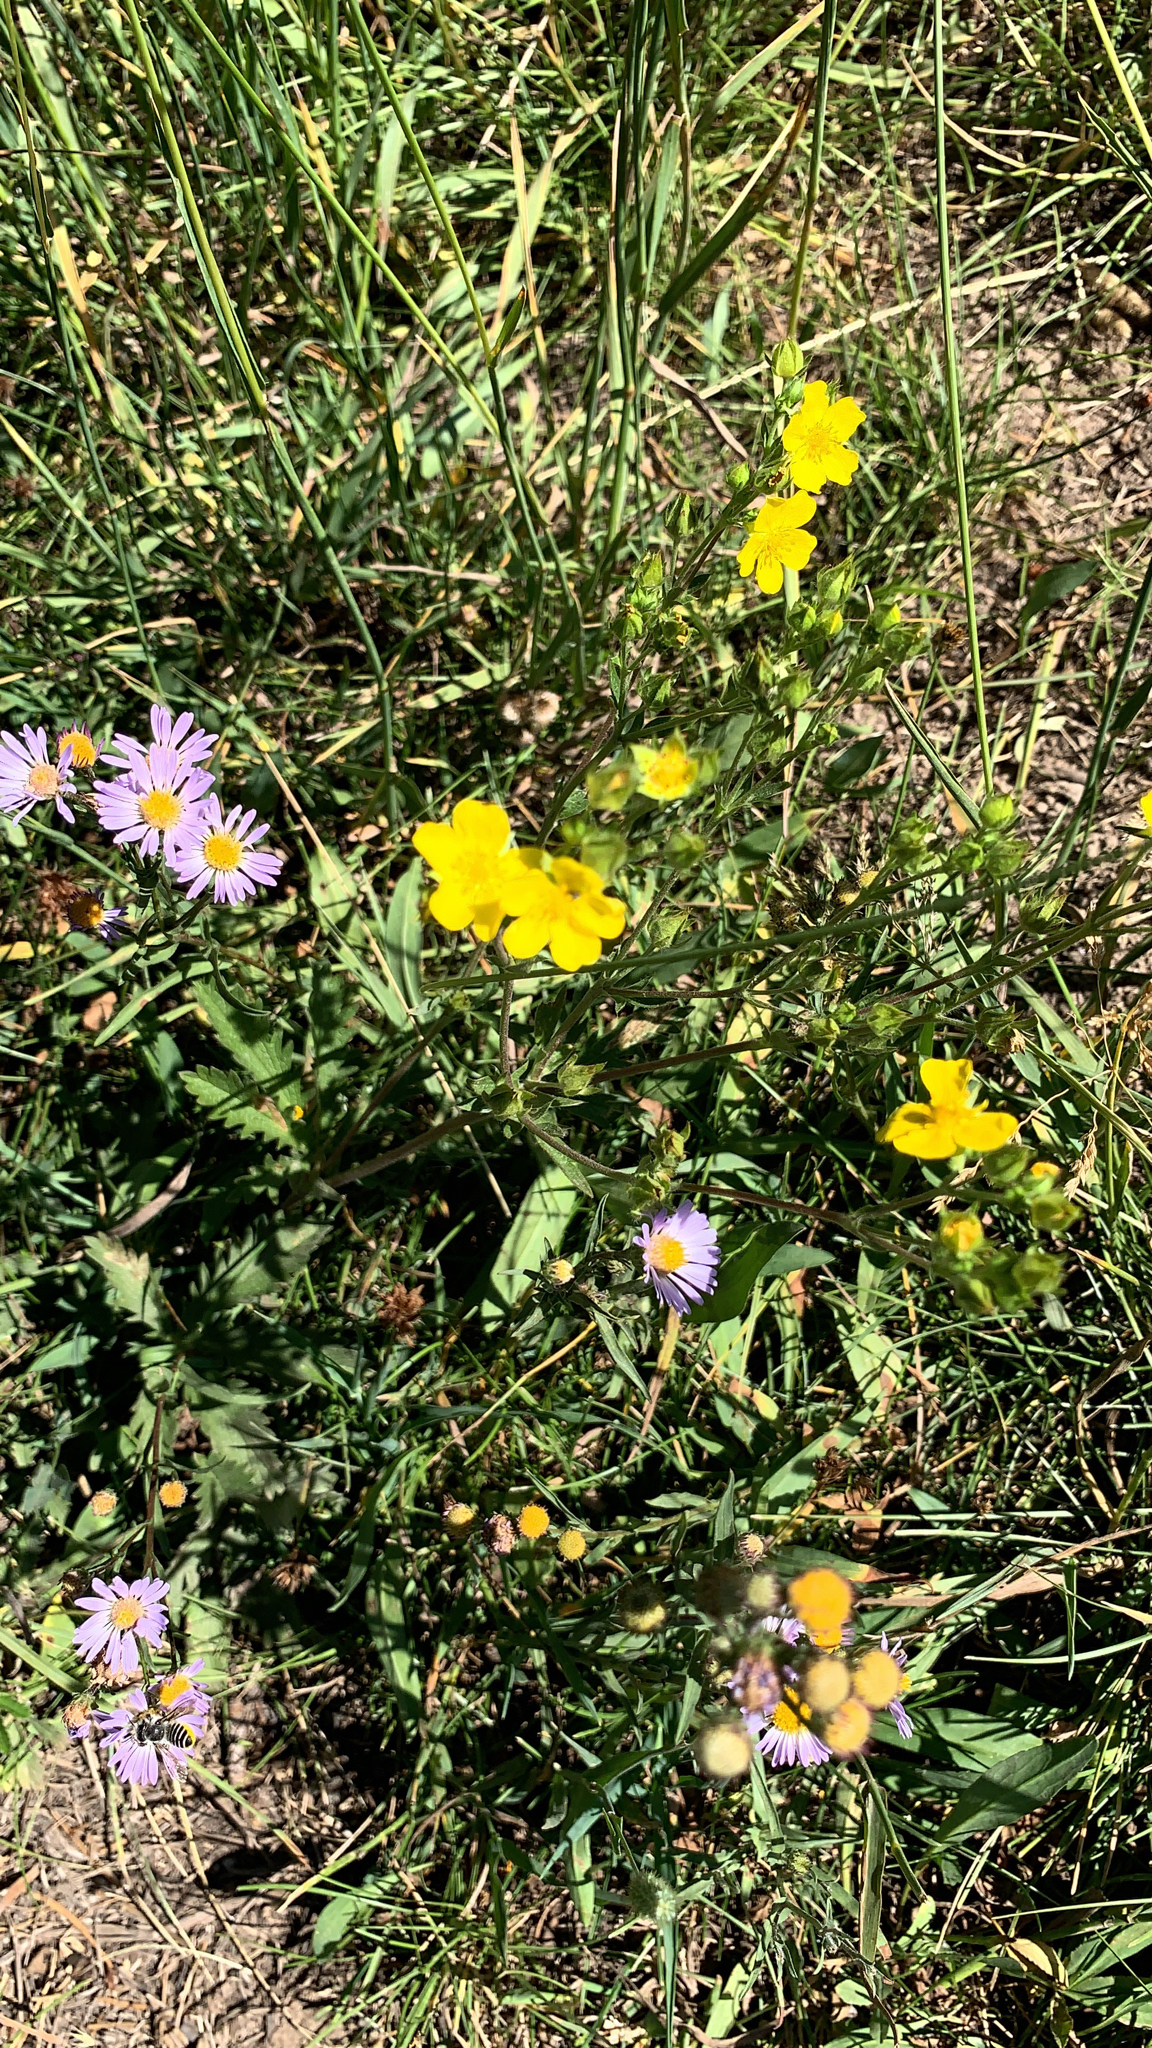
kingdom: Plantae
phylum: Tracheophyta
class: Magnoliopsida
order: Rosales
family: Rosaceae
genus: Potentilla
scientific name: Potentilla gracilis
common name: Graceful cinquefoil
